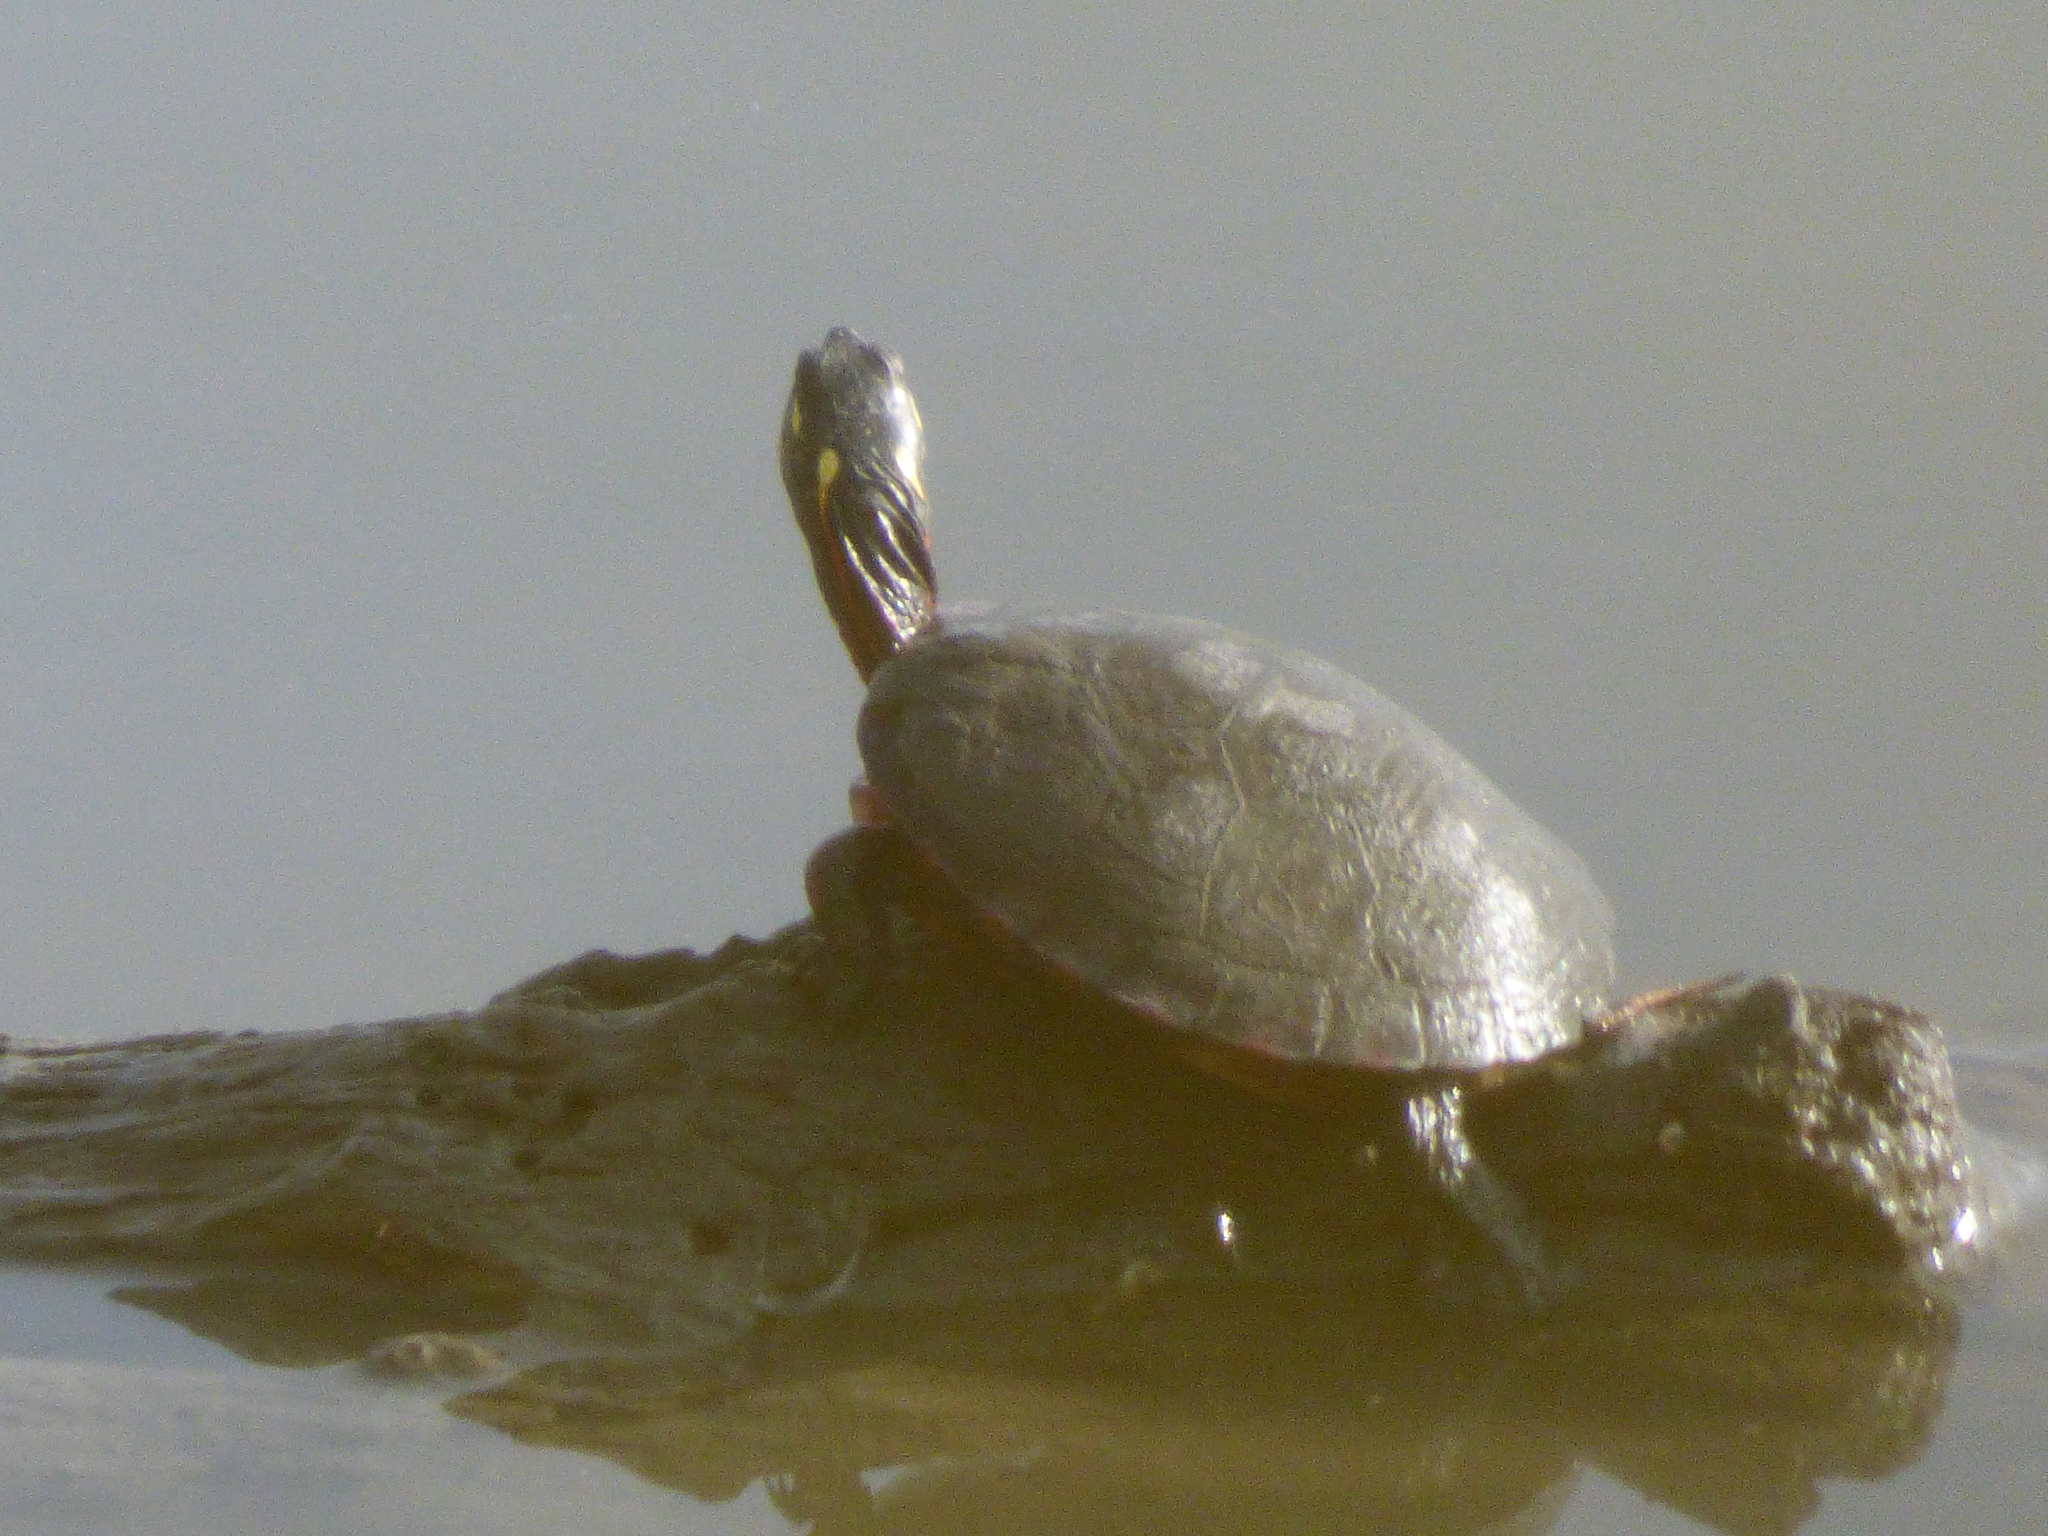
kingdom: Animalia
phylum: Chordata
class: Testudines
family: Emydidae
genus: Chrysemys
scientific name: Chrysemys picta
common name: Painted turtle
